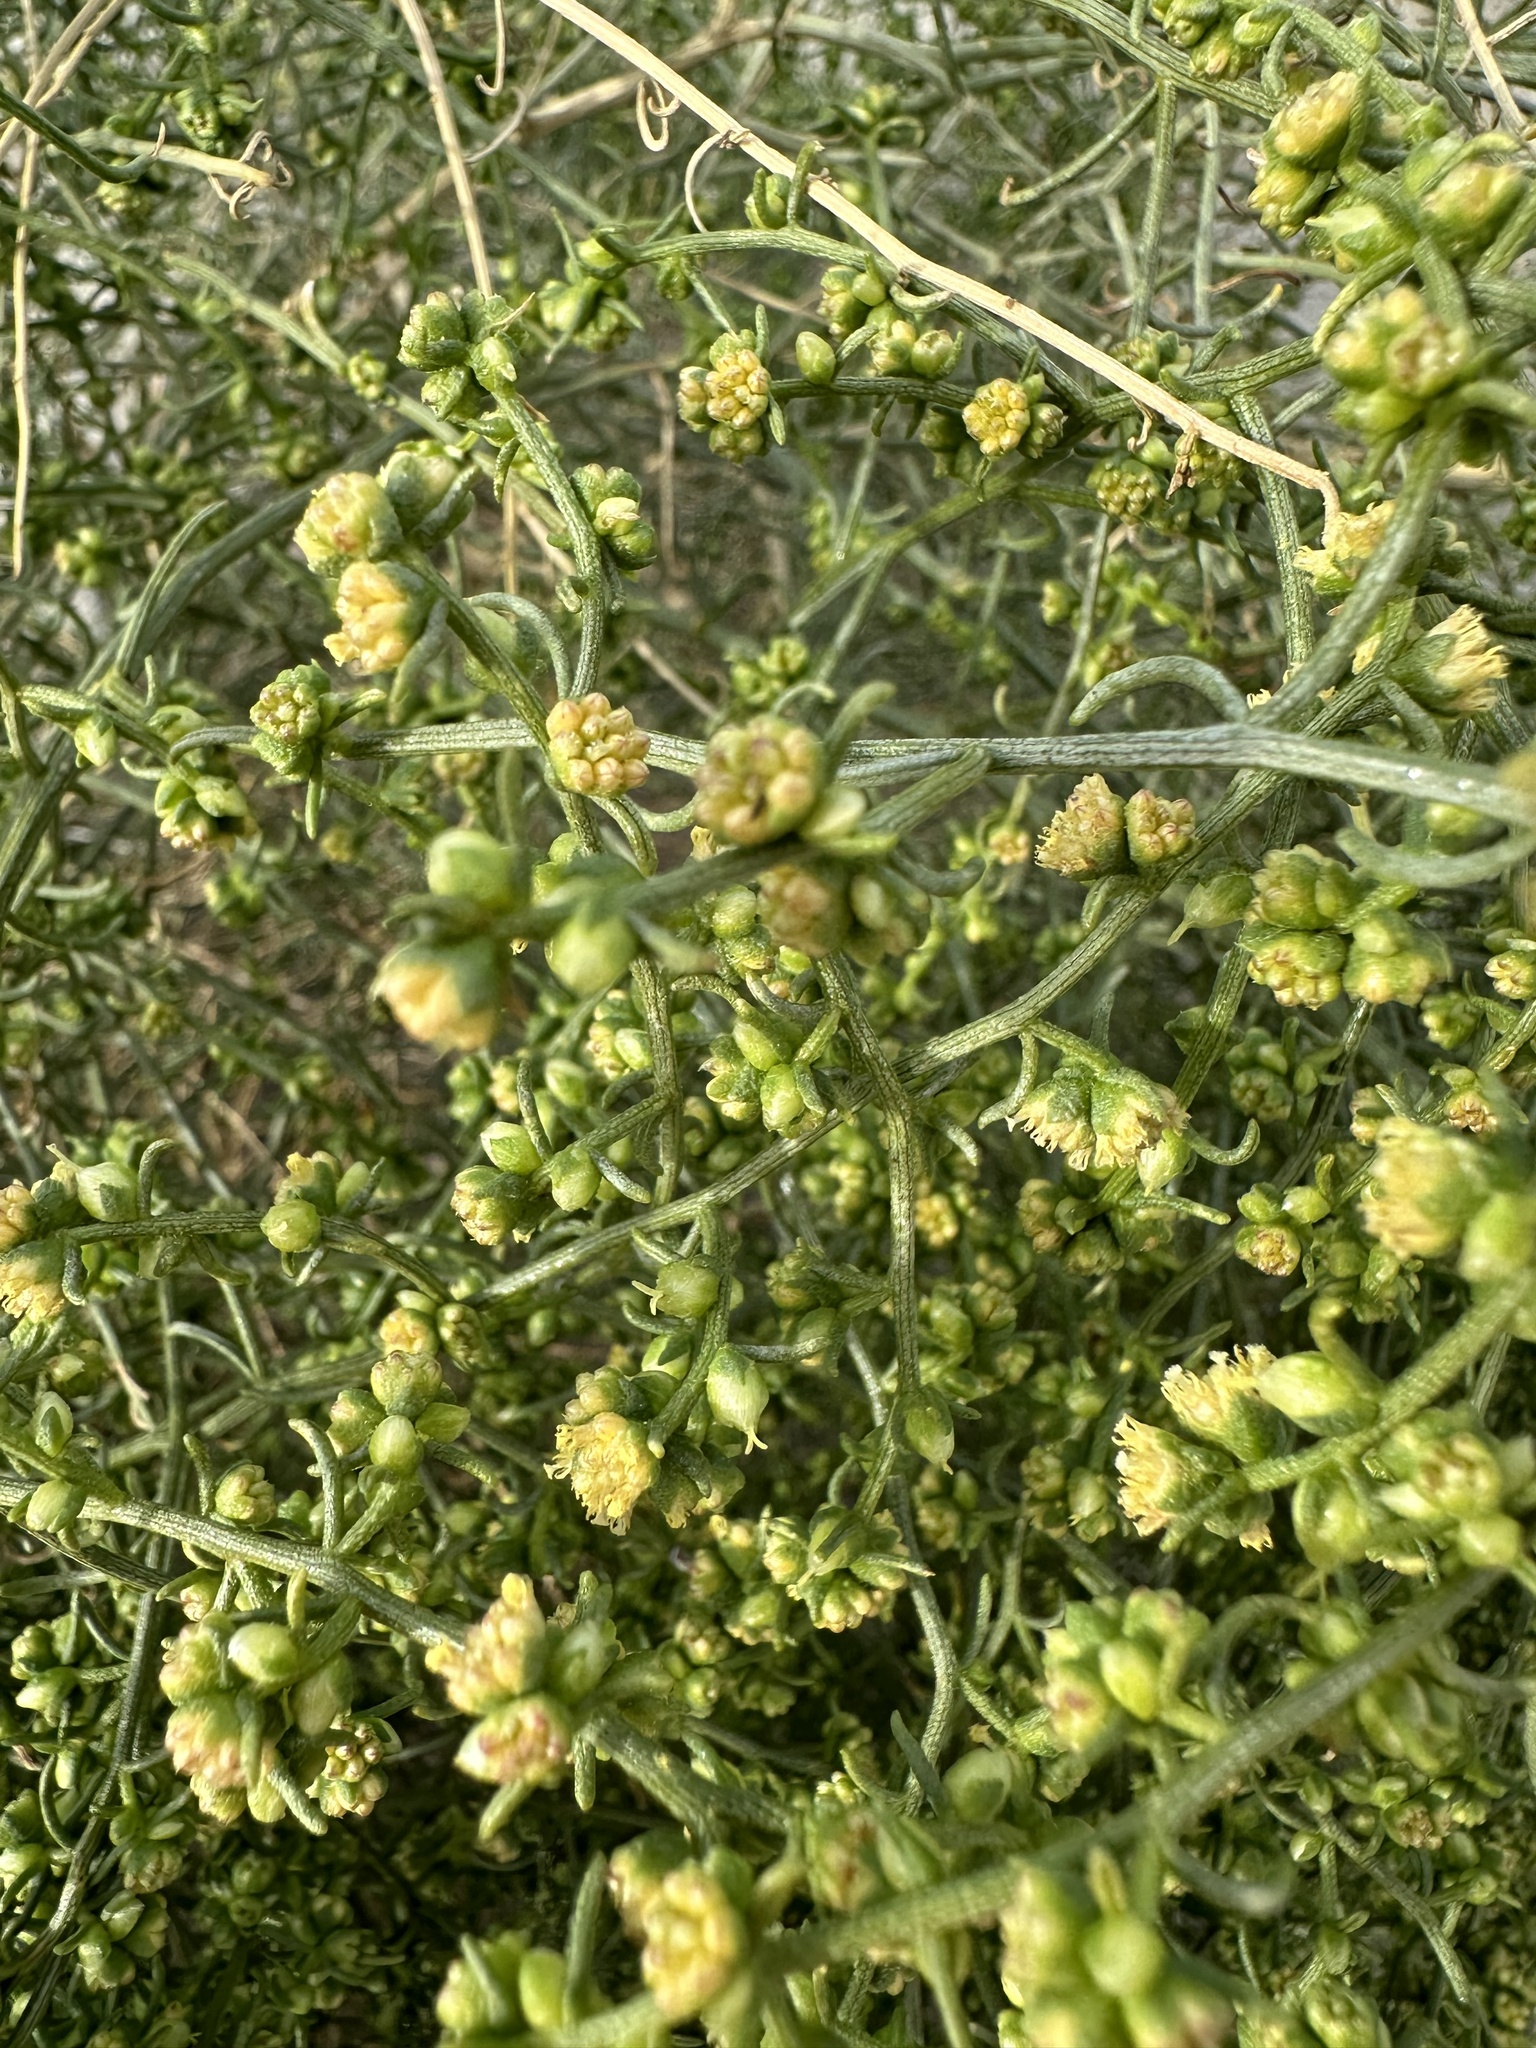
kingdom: Plantae
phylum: Tracheophyta
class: Magnoliopsida
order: Asterales
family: Asteraceae
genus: Ambrosia
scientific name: Ambrosia salsola
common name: Burrobrush
